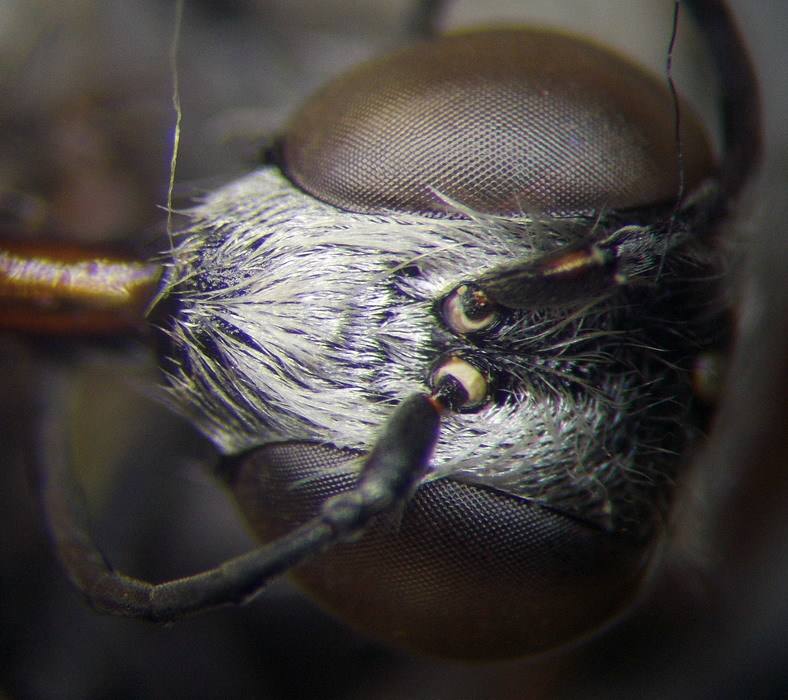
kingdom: Animalia
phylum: Arthropoda
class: Insecta
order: Hymenoptera
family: Sphecidae
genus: Prionyx
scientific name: Prionyx kirbii
